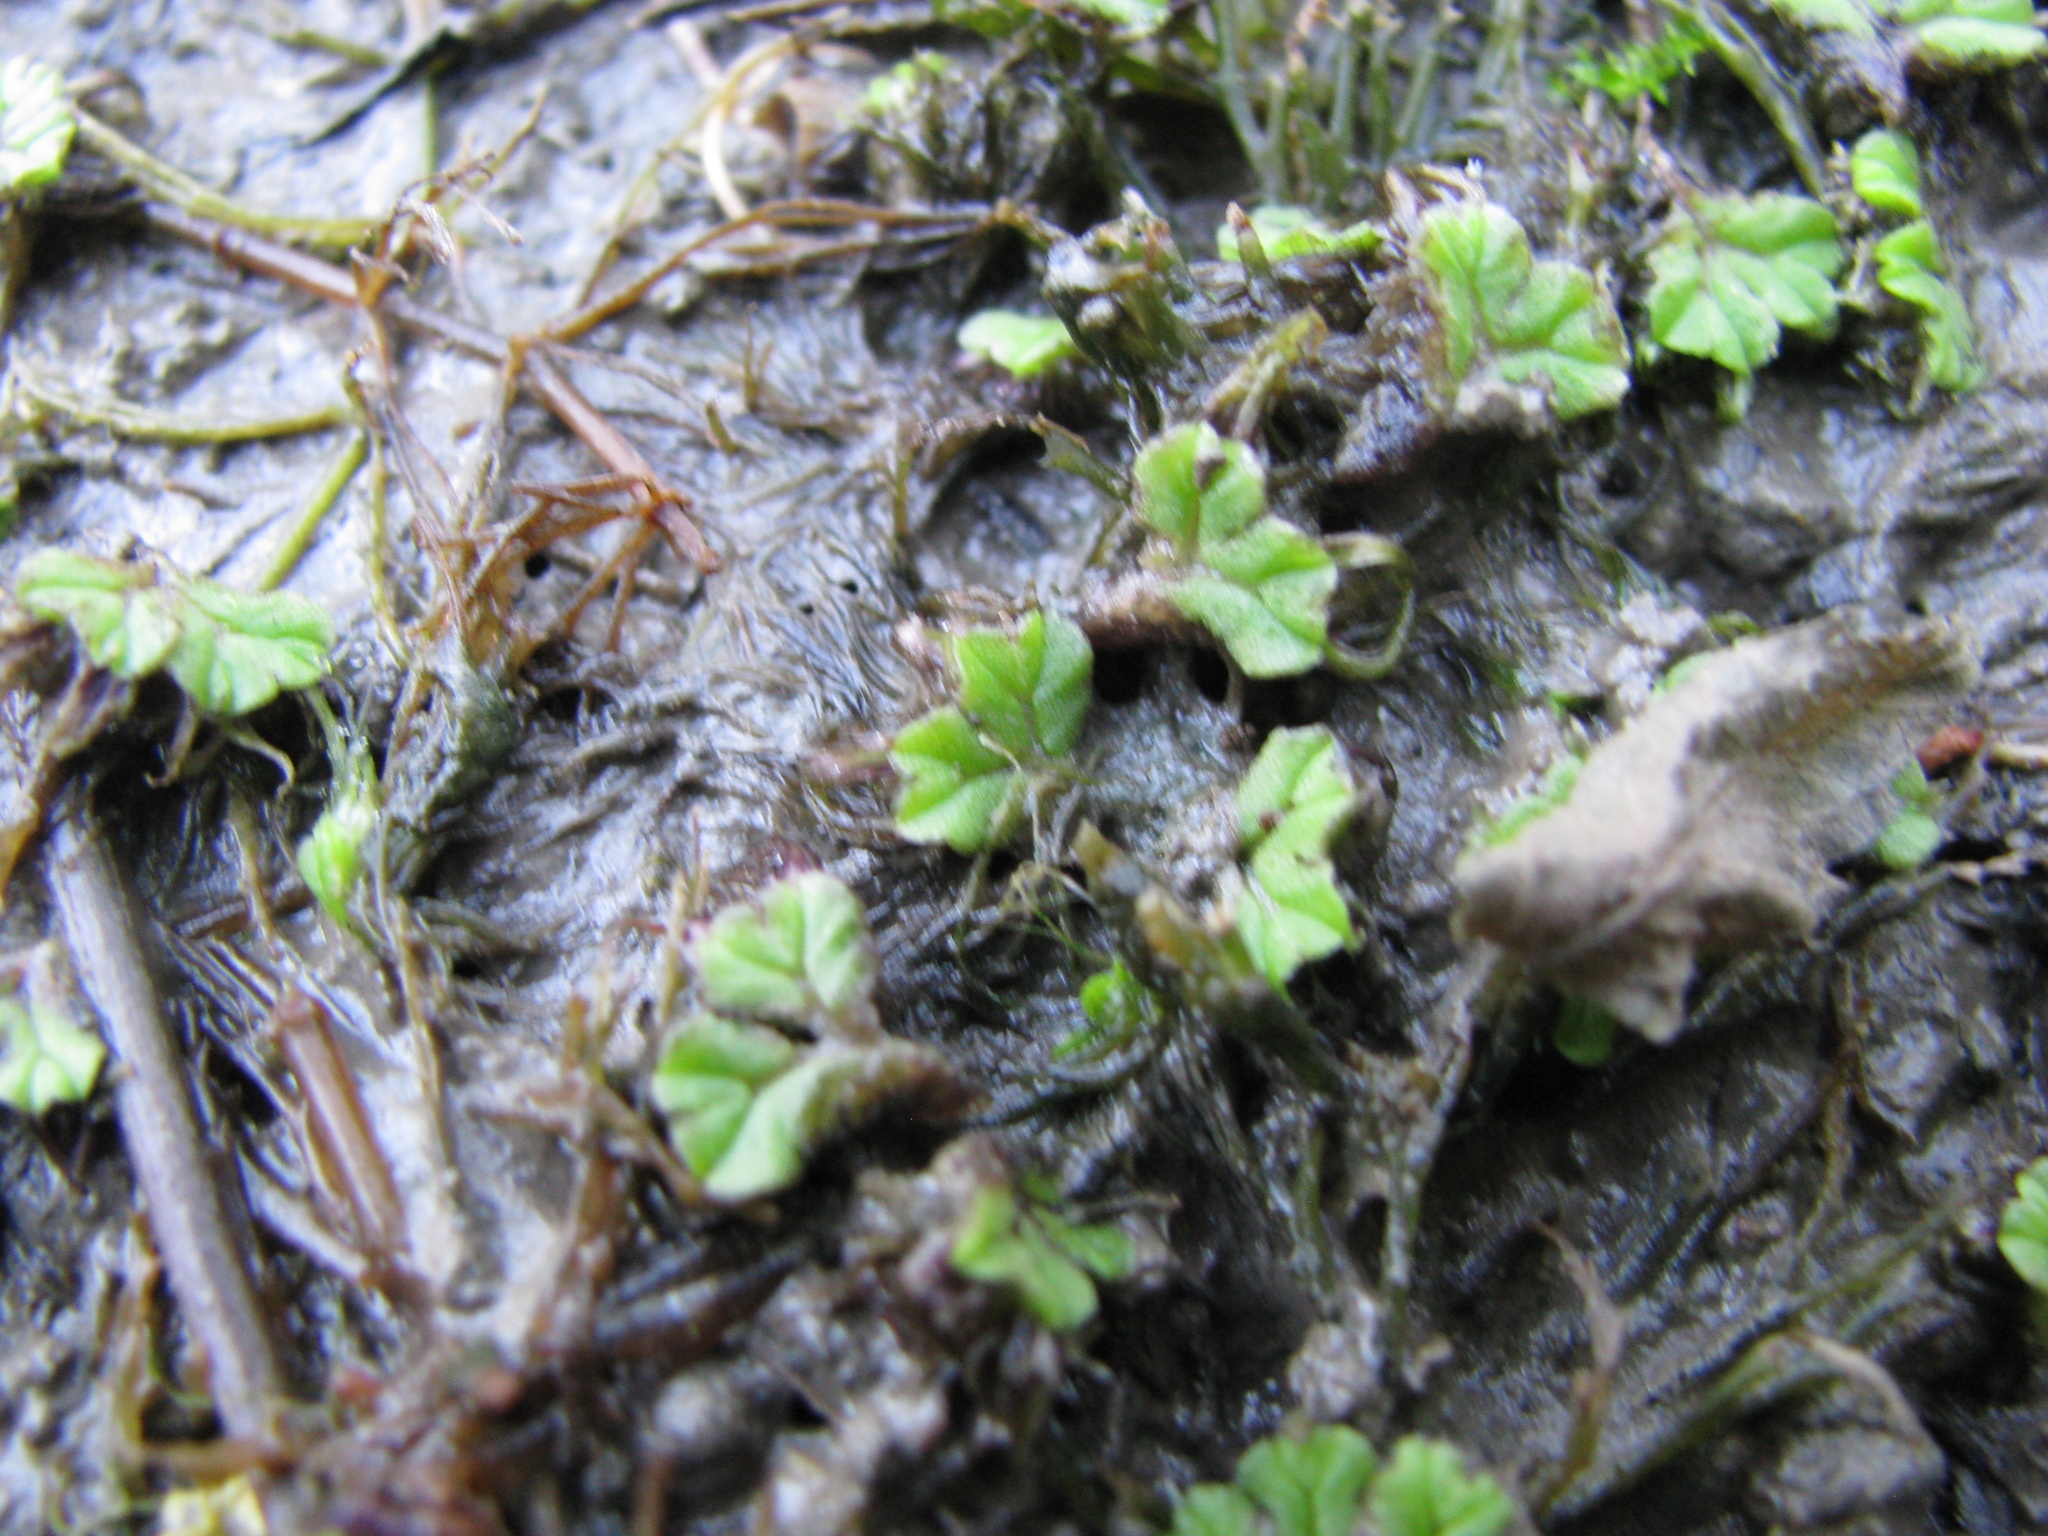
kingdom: Plantae
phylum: Marchantiophyta
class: Marchantiopsida
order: Marchantiales
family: Ricciaceae
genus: Ricciocarpos
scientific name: Ricciocarpos natans
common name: Purple-fringed liverwort
